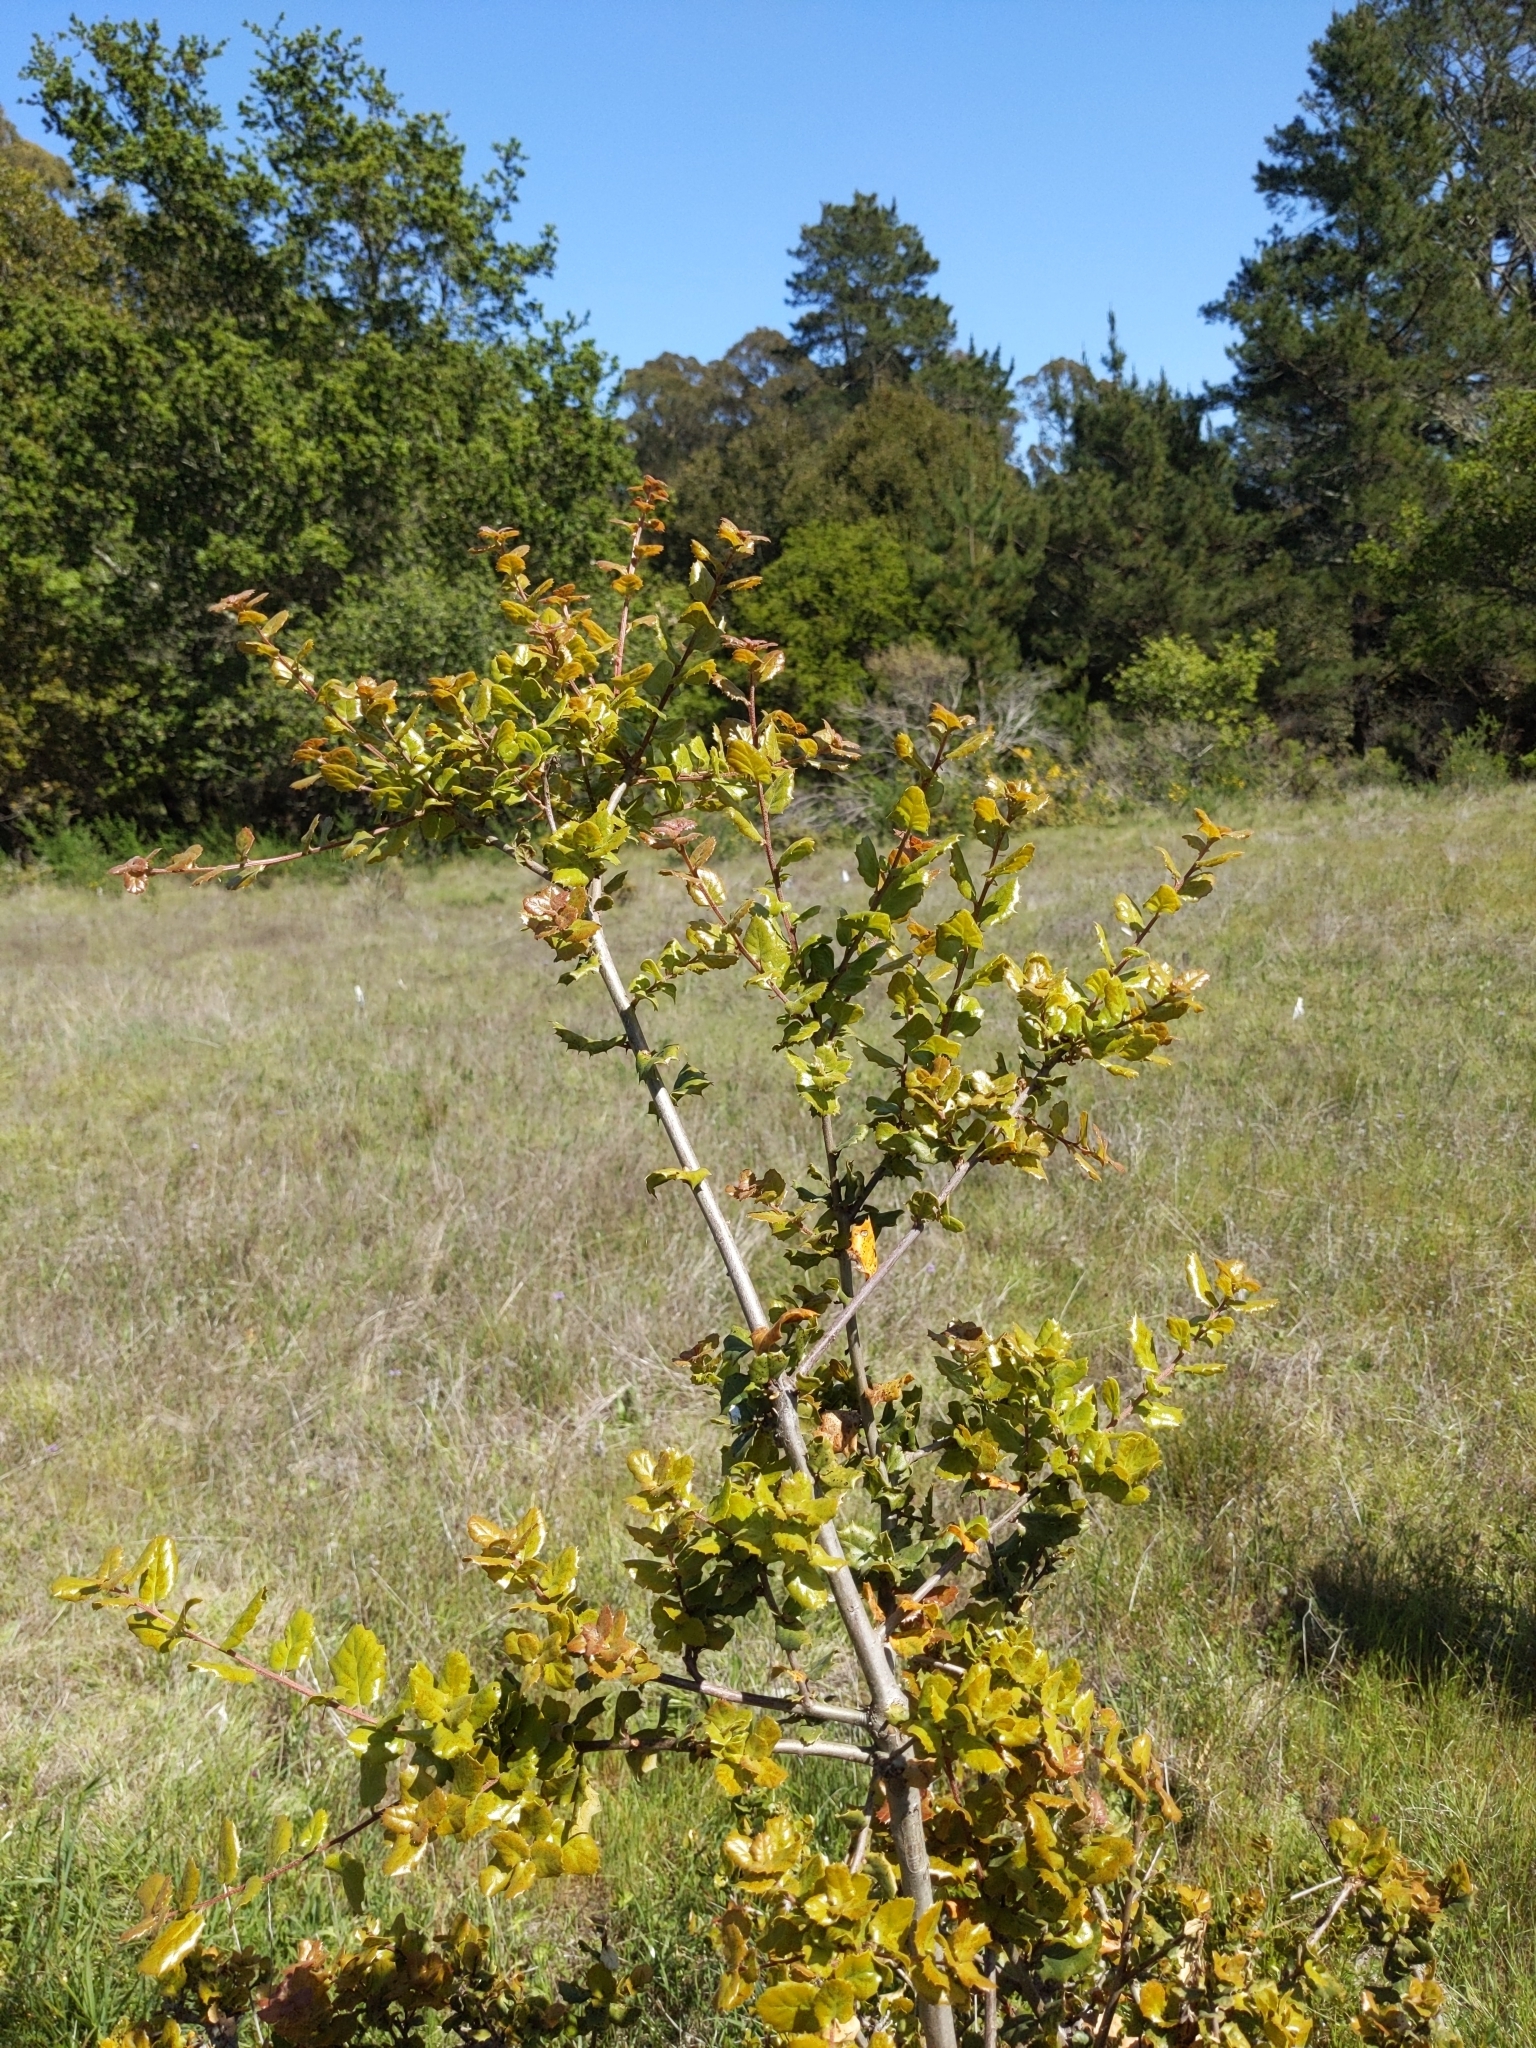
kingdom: Plantae
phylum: Tracheophyta
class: Magnoliopsida
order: Fagales
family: Fagaceae
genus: Quercus
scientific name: Quercus agrifolia
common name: California live oak
